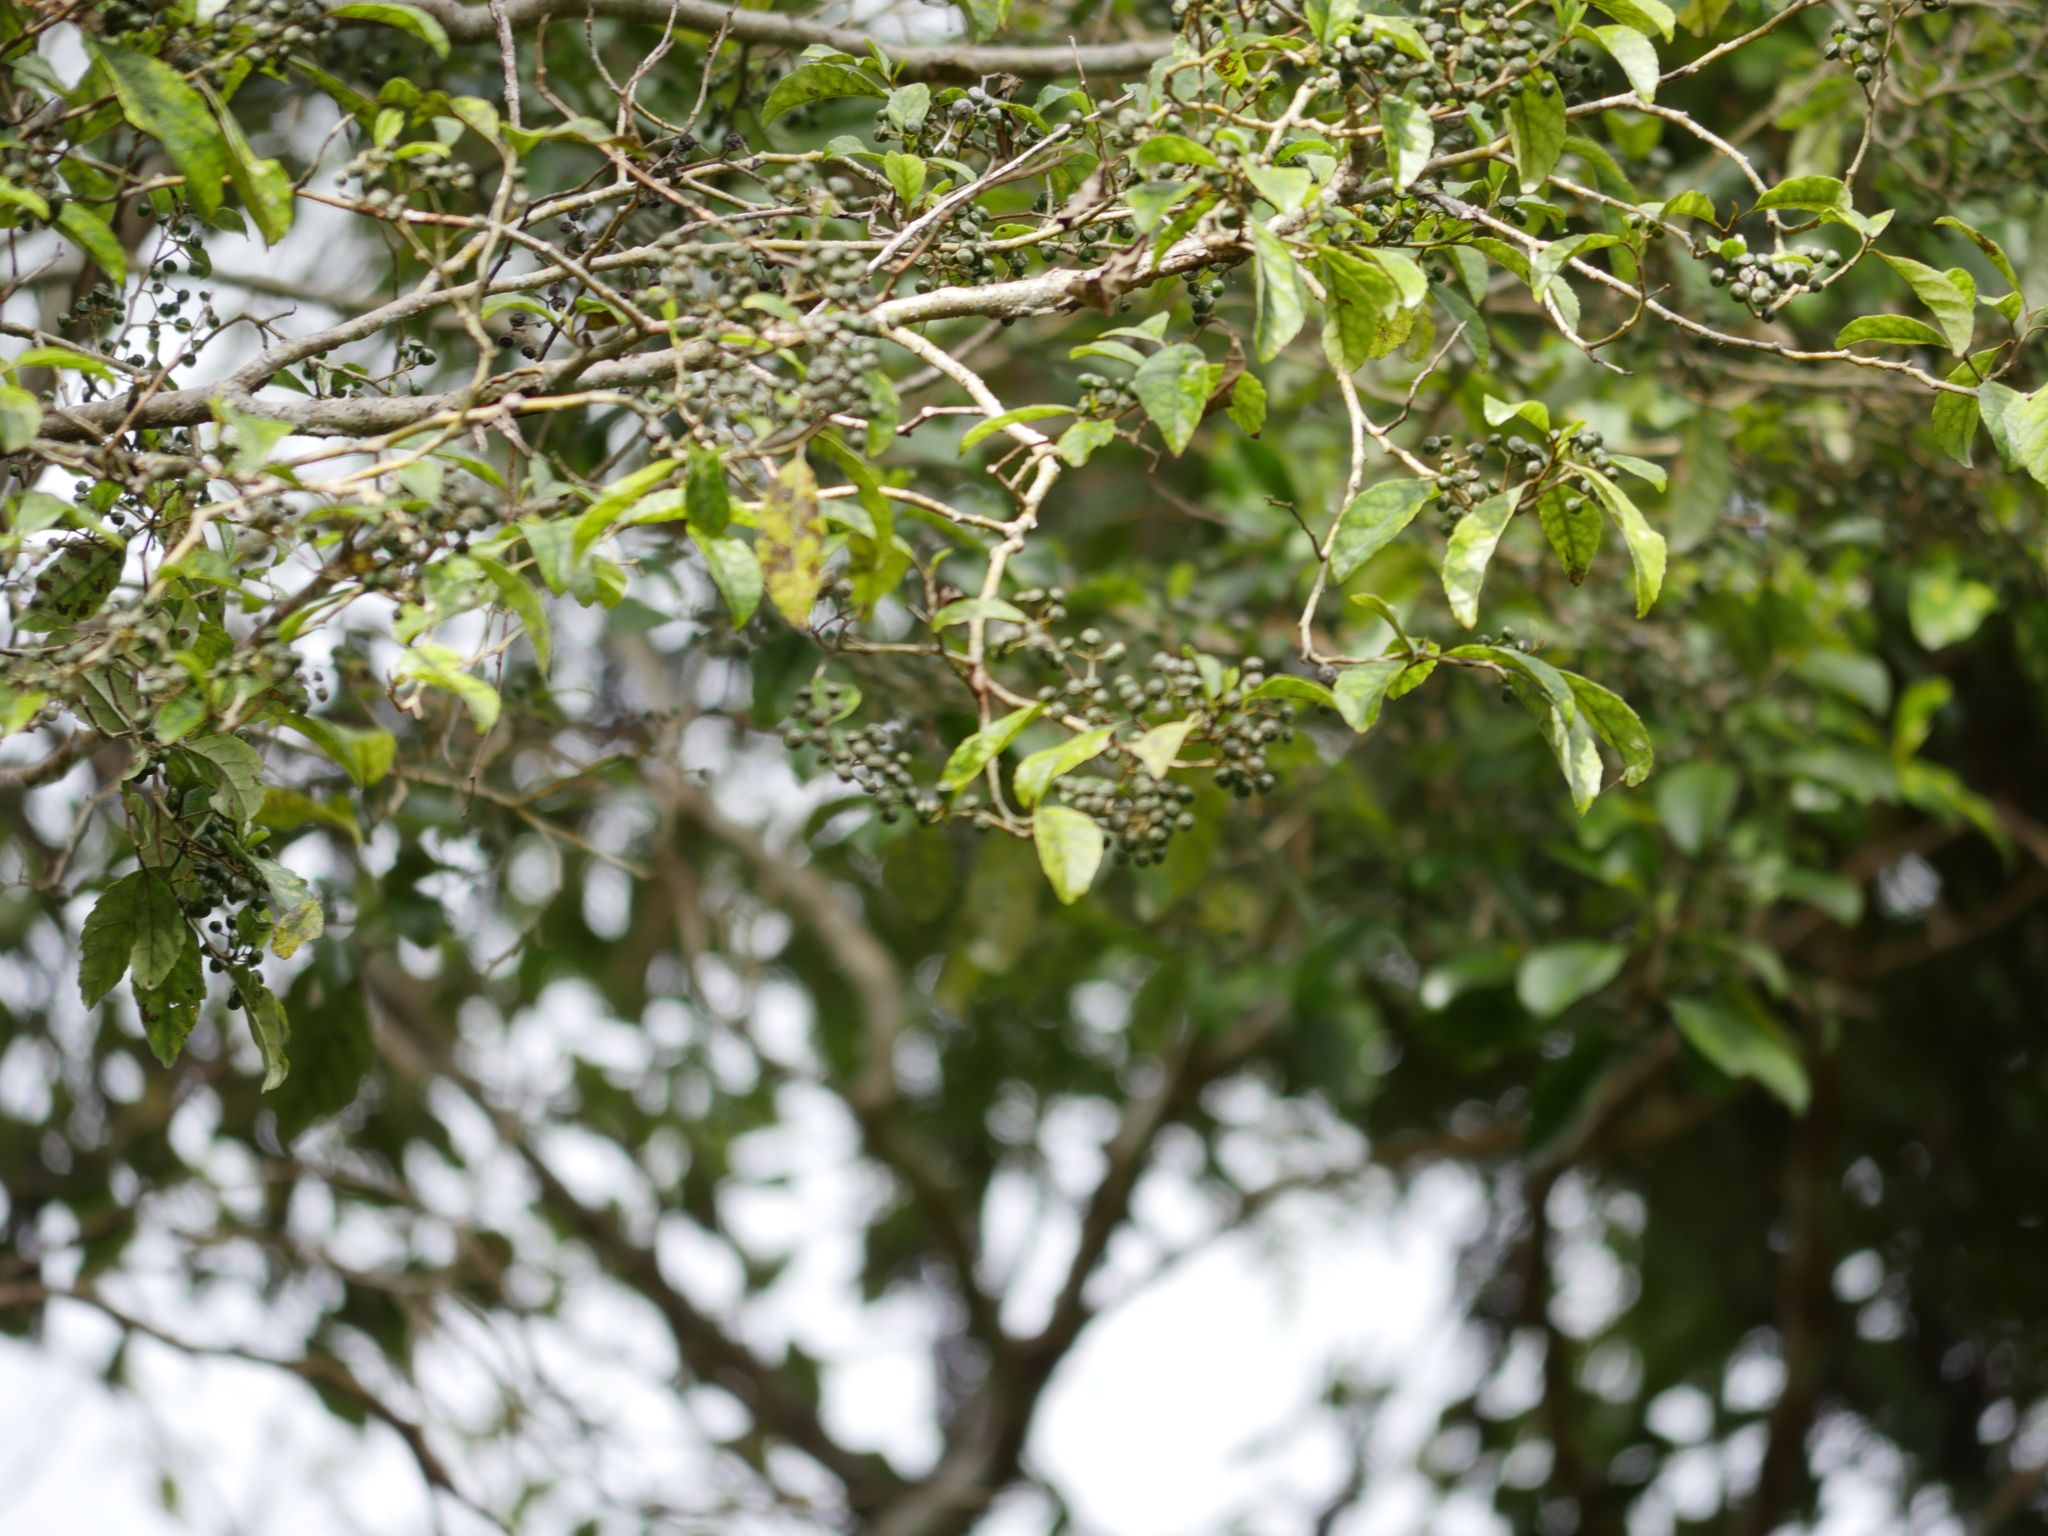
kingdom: Plantae
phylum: Tracheophyta
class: Magnoliopsida
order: Asterales
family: Rousseaceae
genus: Carpodetus
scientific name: Carpodetus serratus
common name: White mapau
